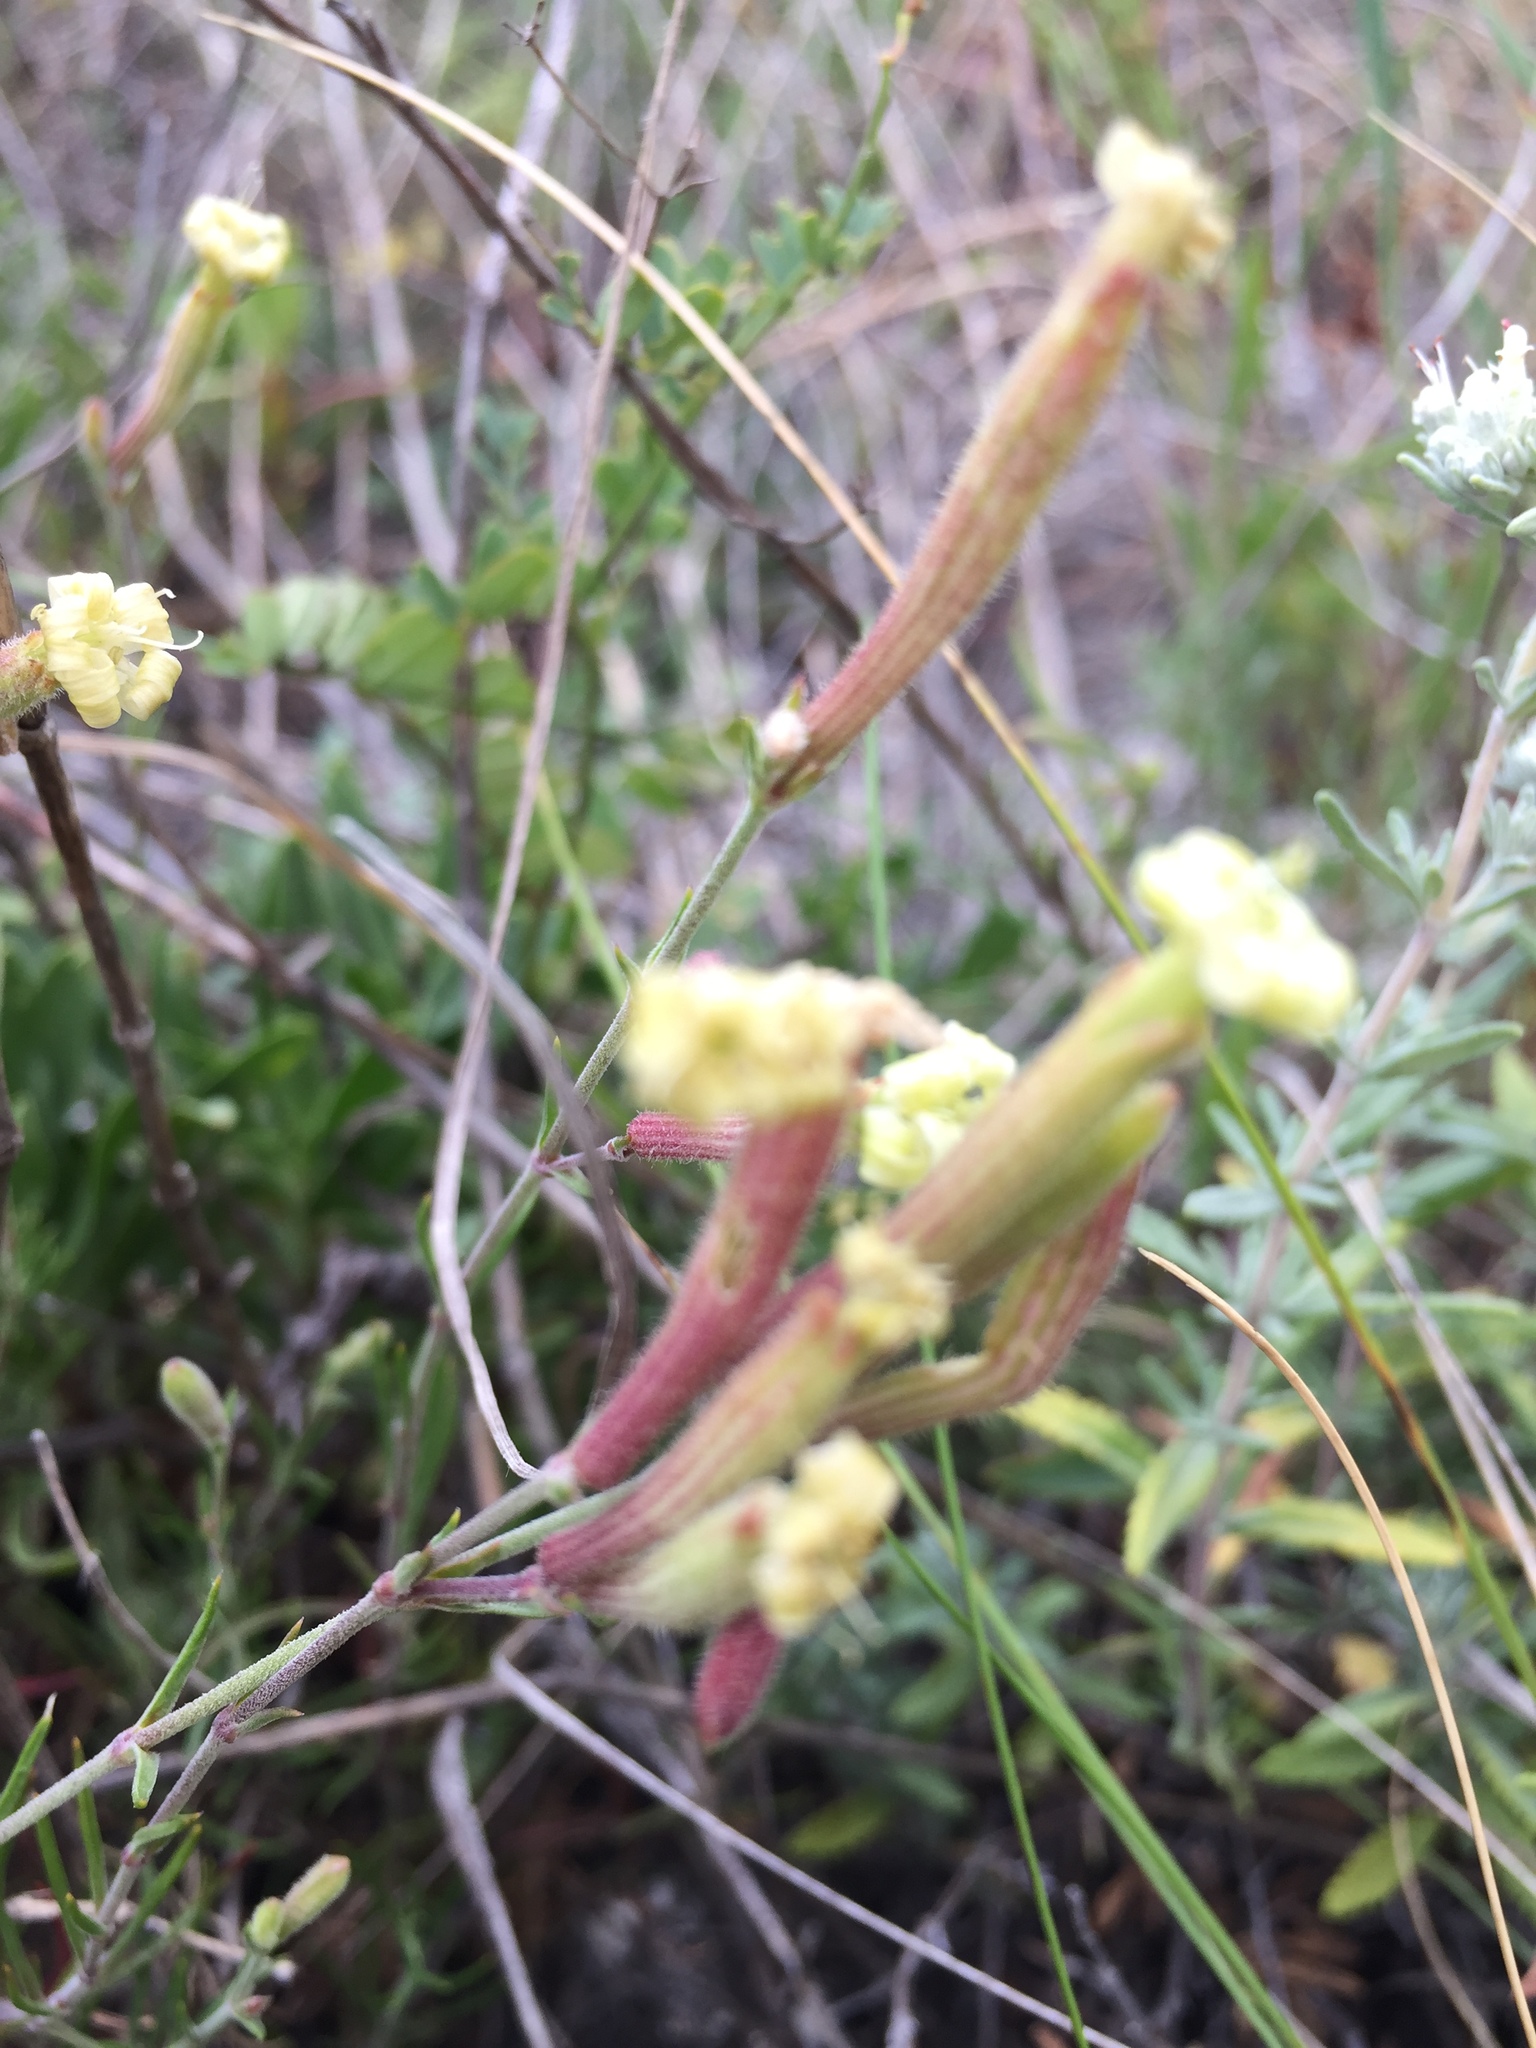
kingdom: Plantae
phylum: Tracheophyta
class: Magnoliopsida
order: Caryophyllales
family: Caryophyllaceae
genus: Silene
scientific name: Silene supina
